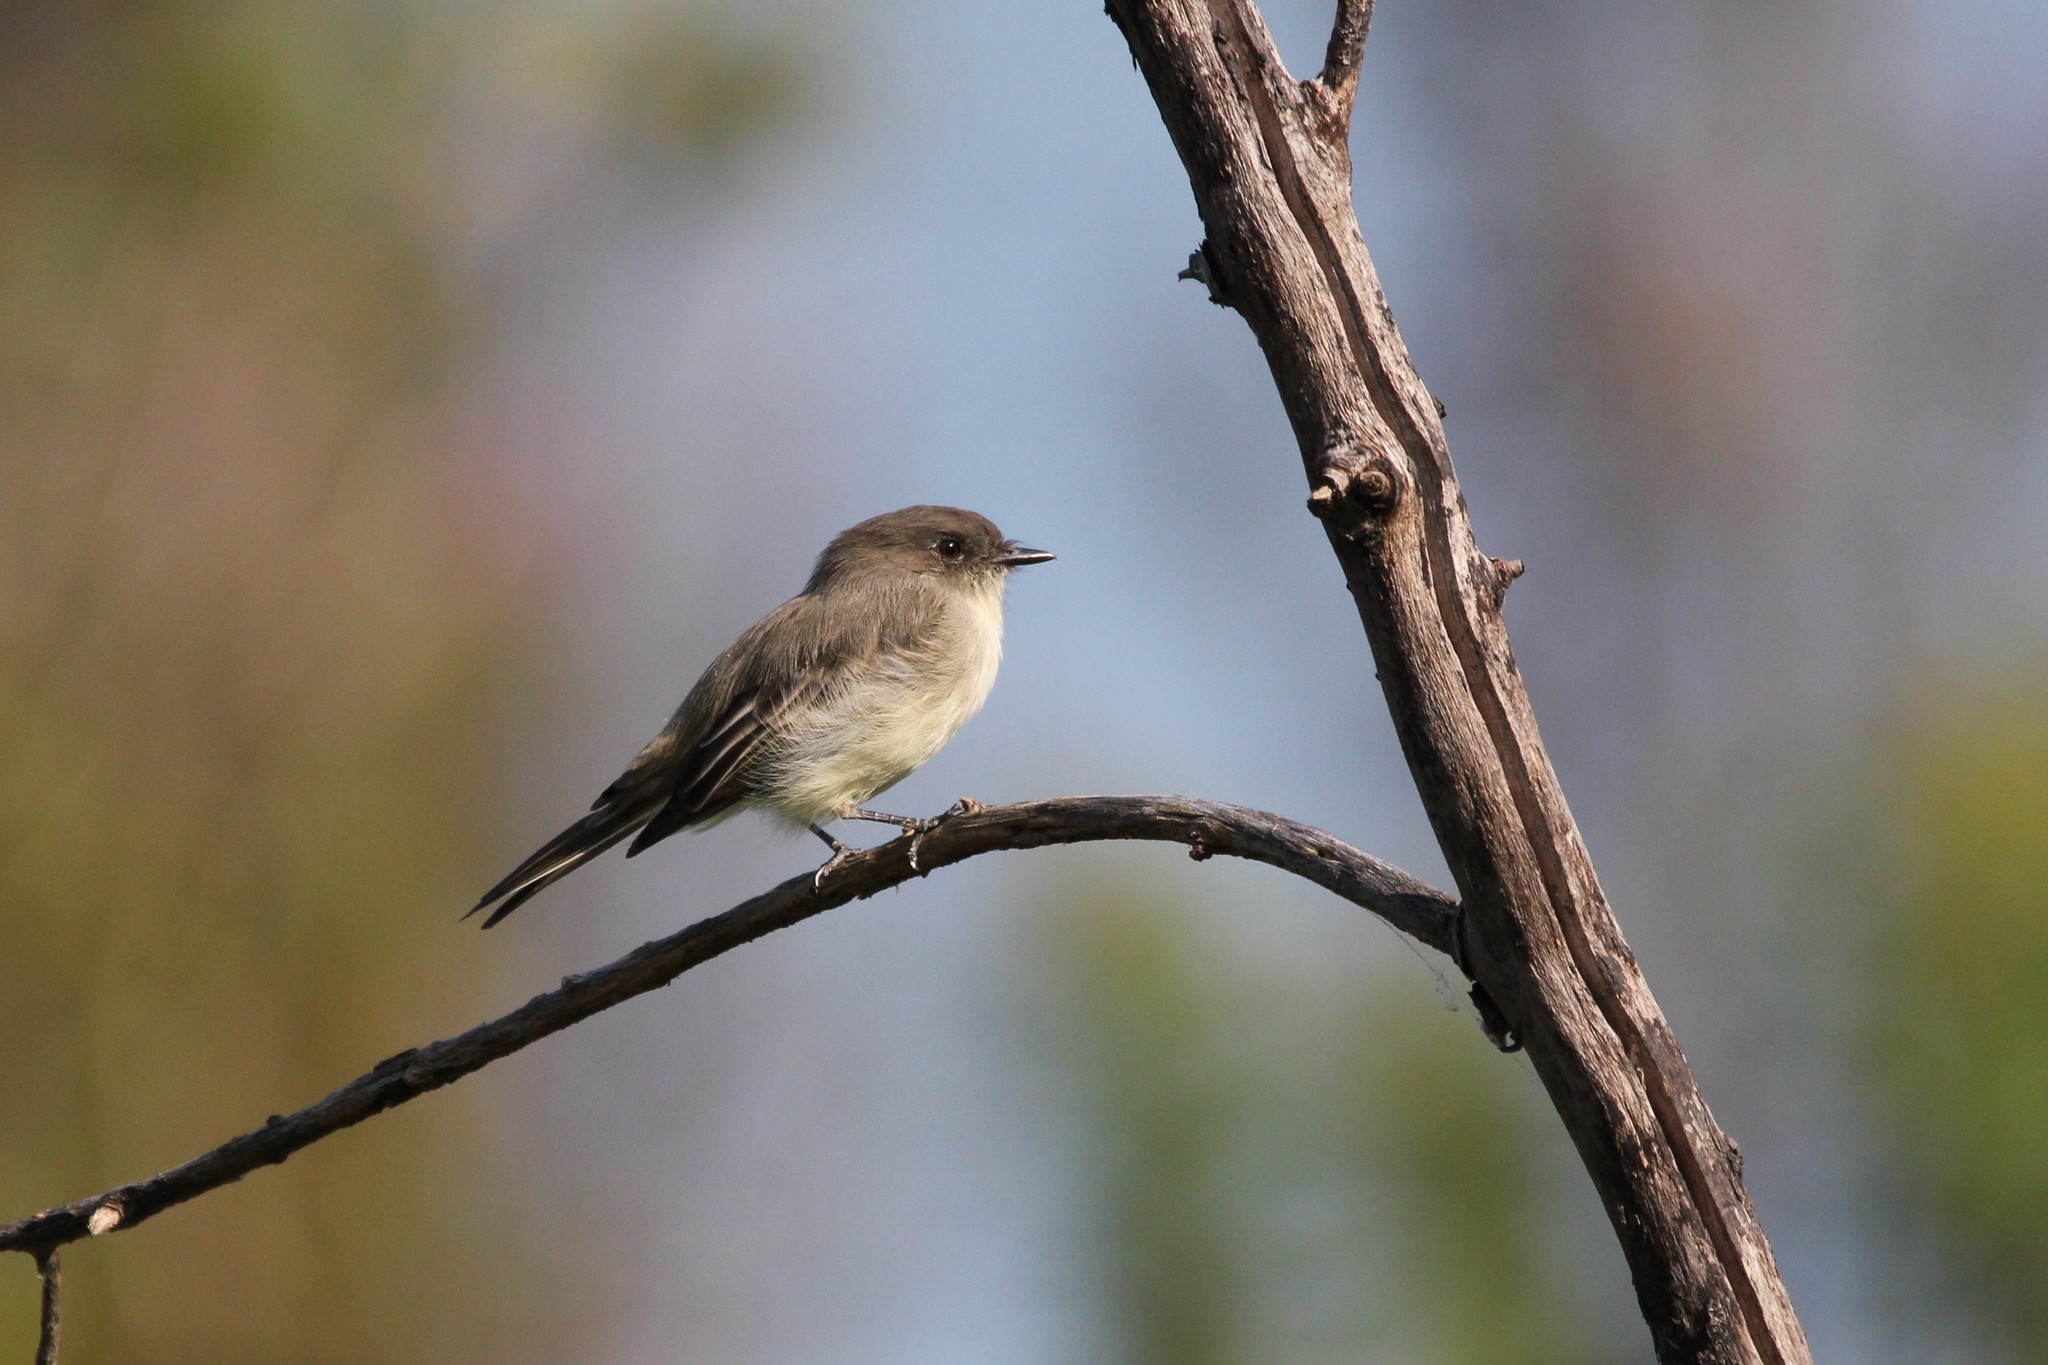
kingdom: Animalia
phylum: Chordata
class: Aves
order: Passeriformes
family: Tyrannidae
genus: Sayornis
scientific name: Sayornis phoebe
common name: Eastern phoebe
